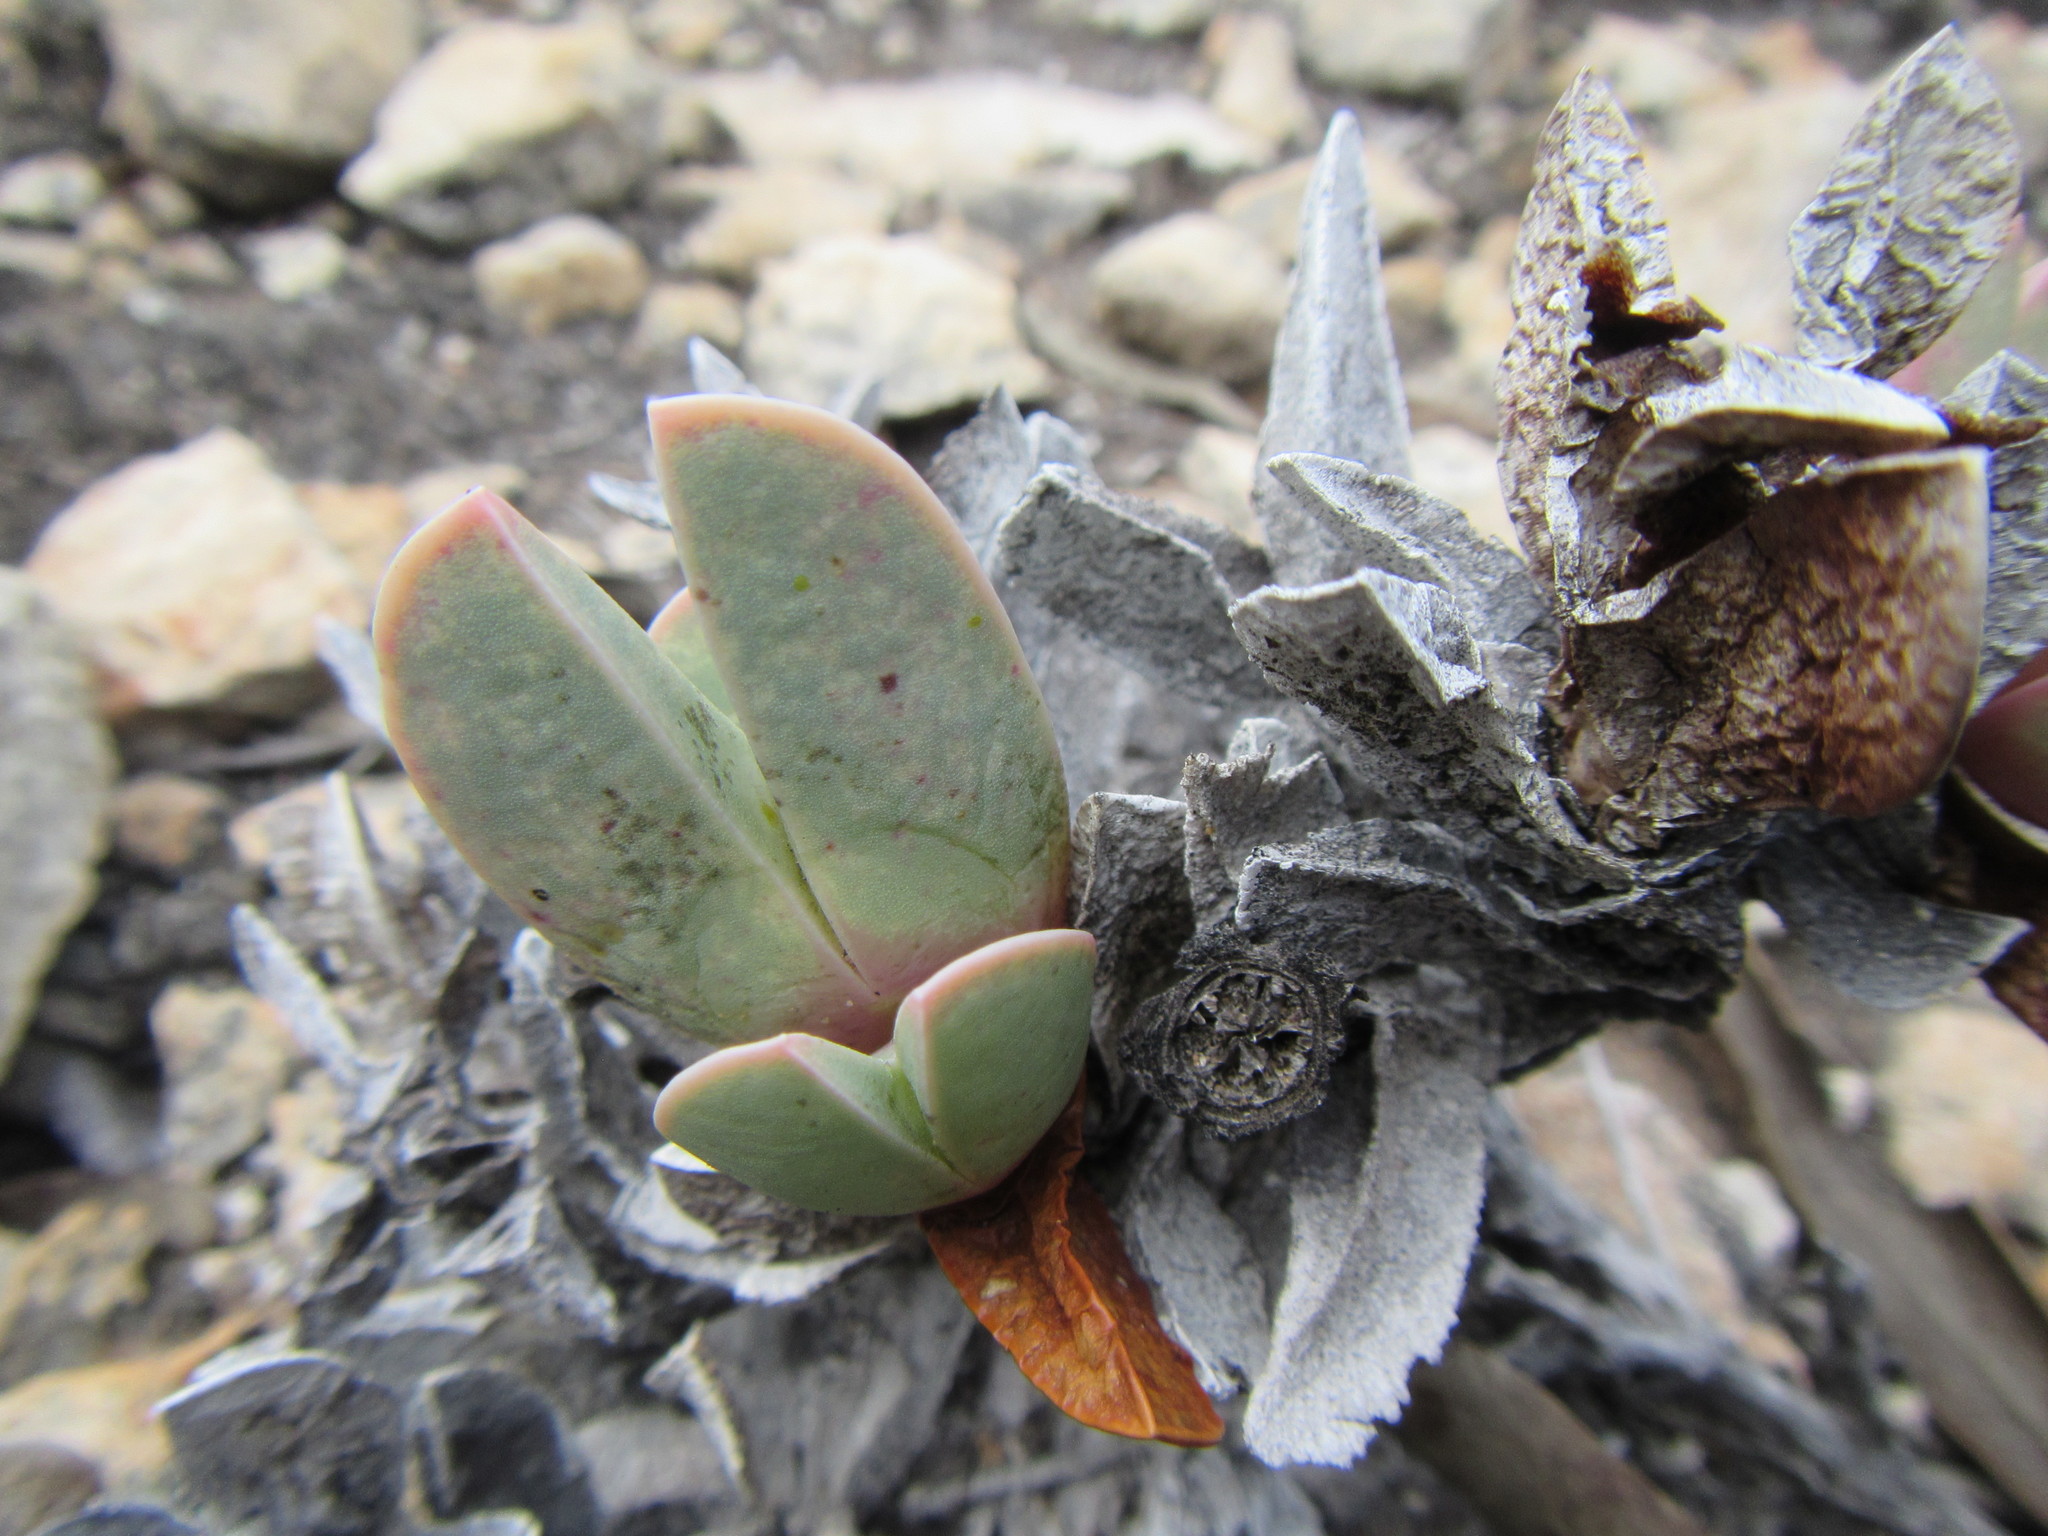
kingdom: Plantae
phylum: Tracheophyta
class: Magnoliopsida
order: Caryophyllales
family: Aizoaceae
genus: Braunsia
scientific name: Braunsia vanrensburgii
